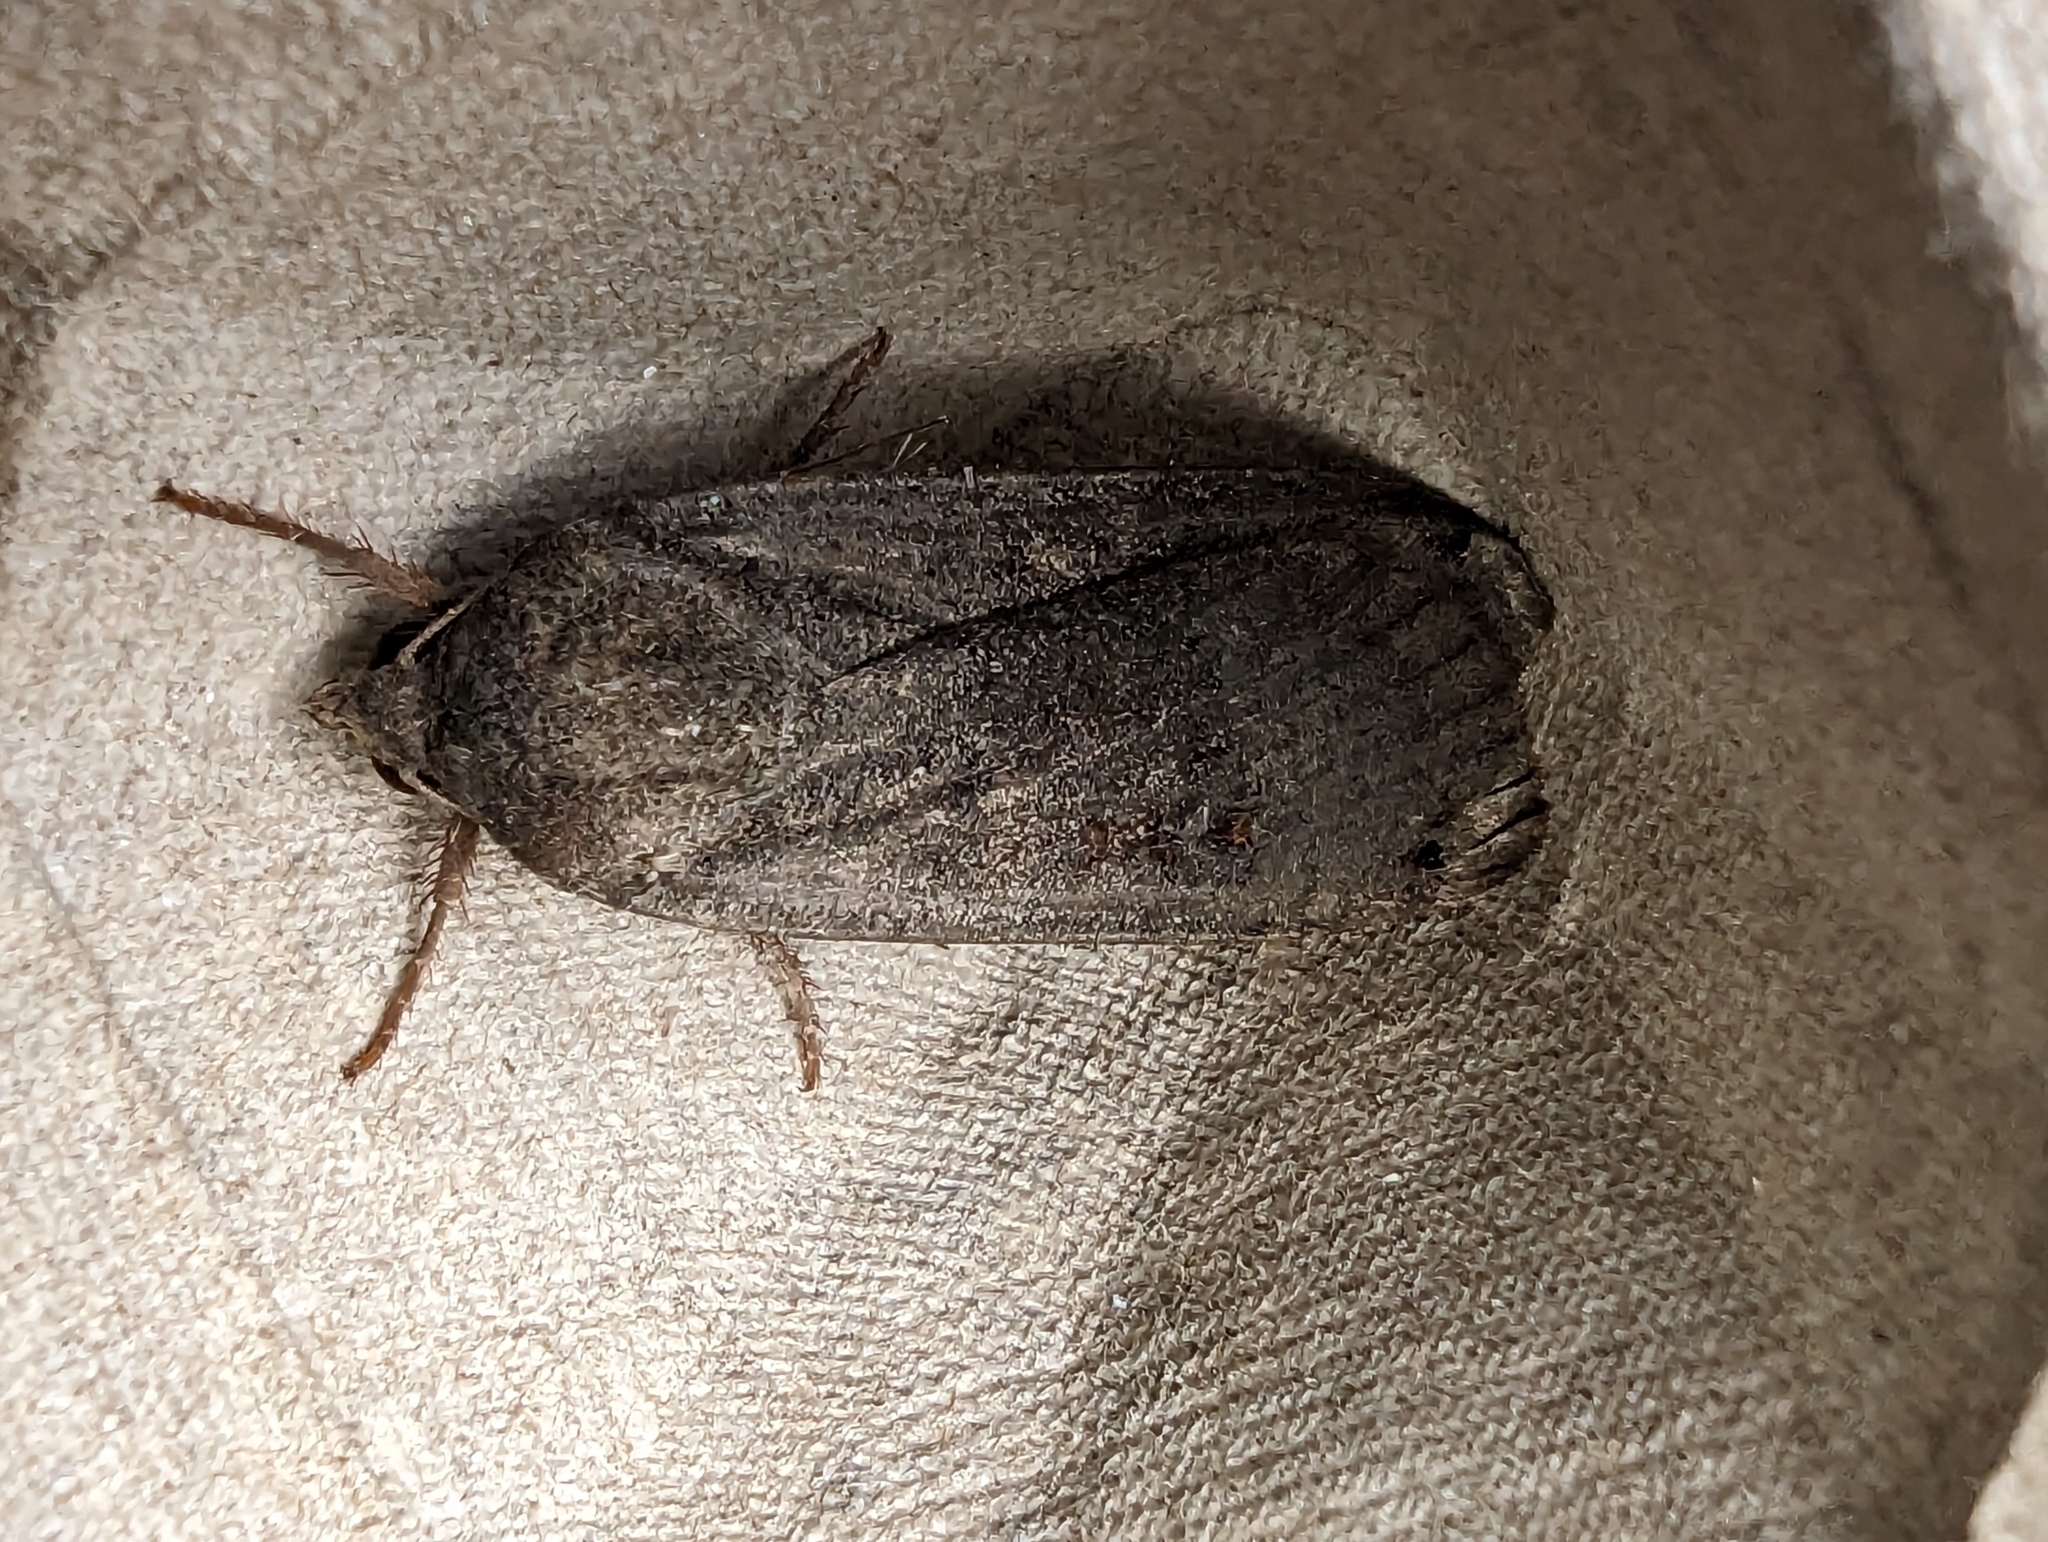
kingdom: Animalia
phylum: Arthropoda
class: Insecta
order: Lepidoptera
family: Noctuidae
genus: Noctua
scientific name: Noctua pronuba
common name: Large yellow underwing
